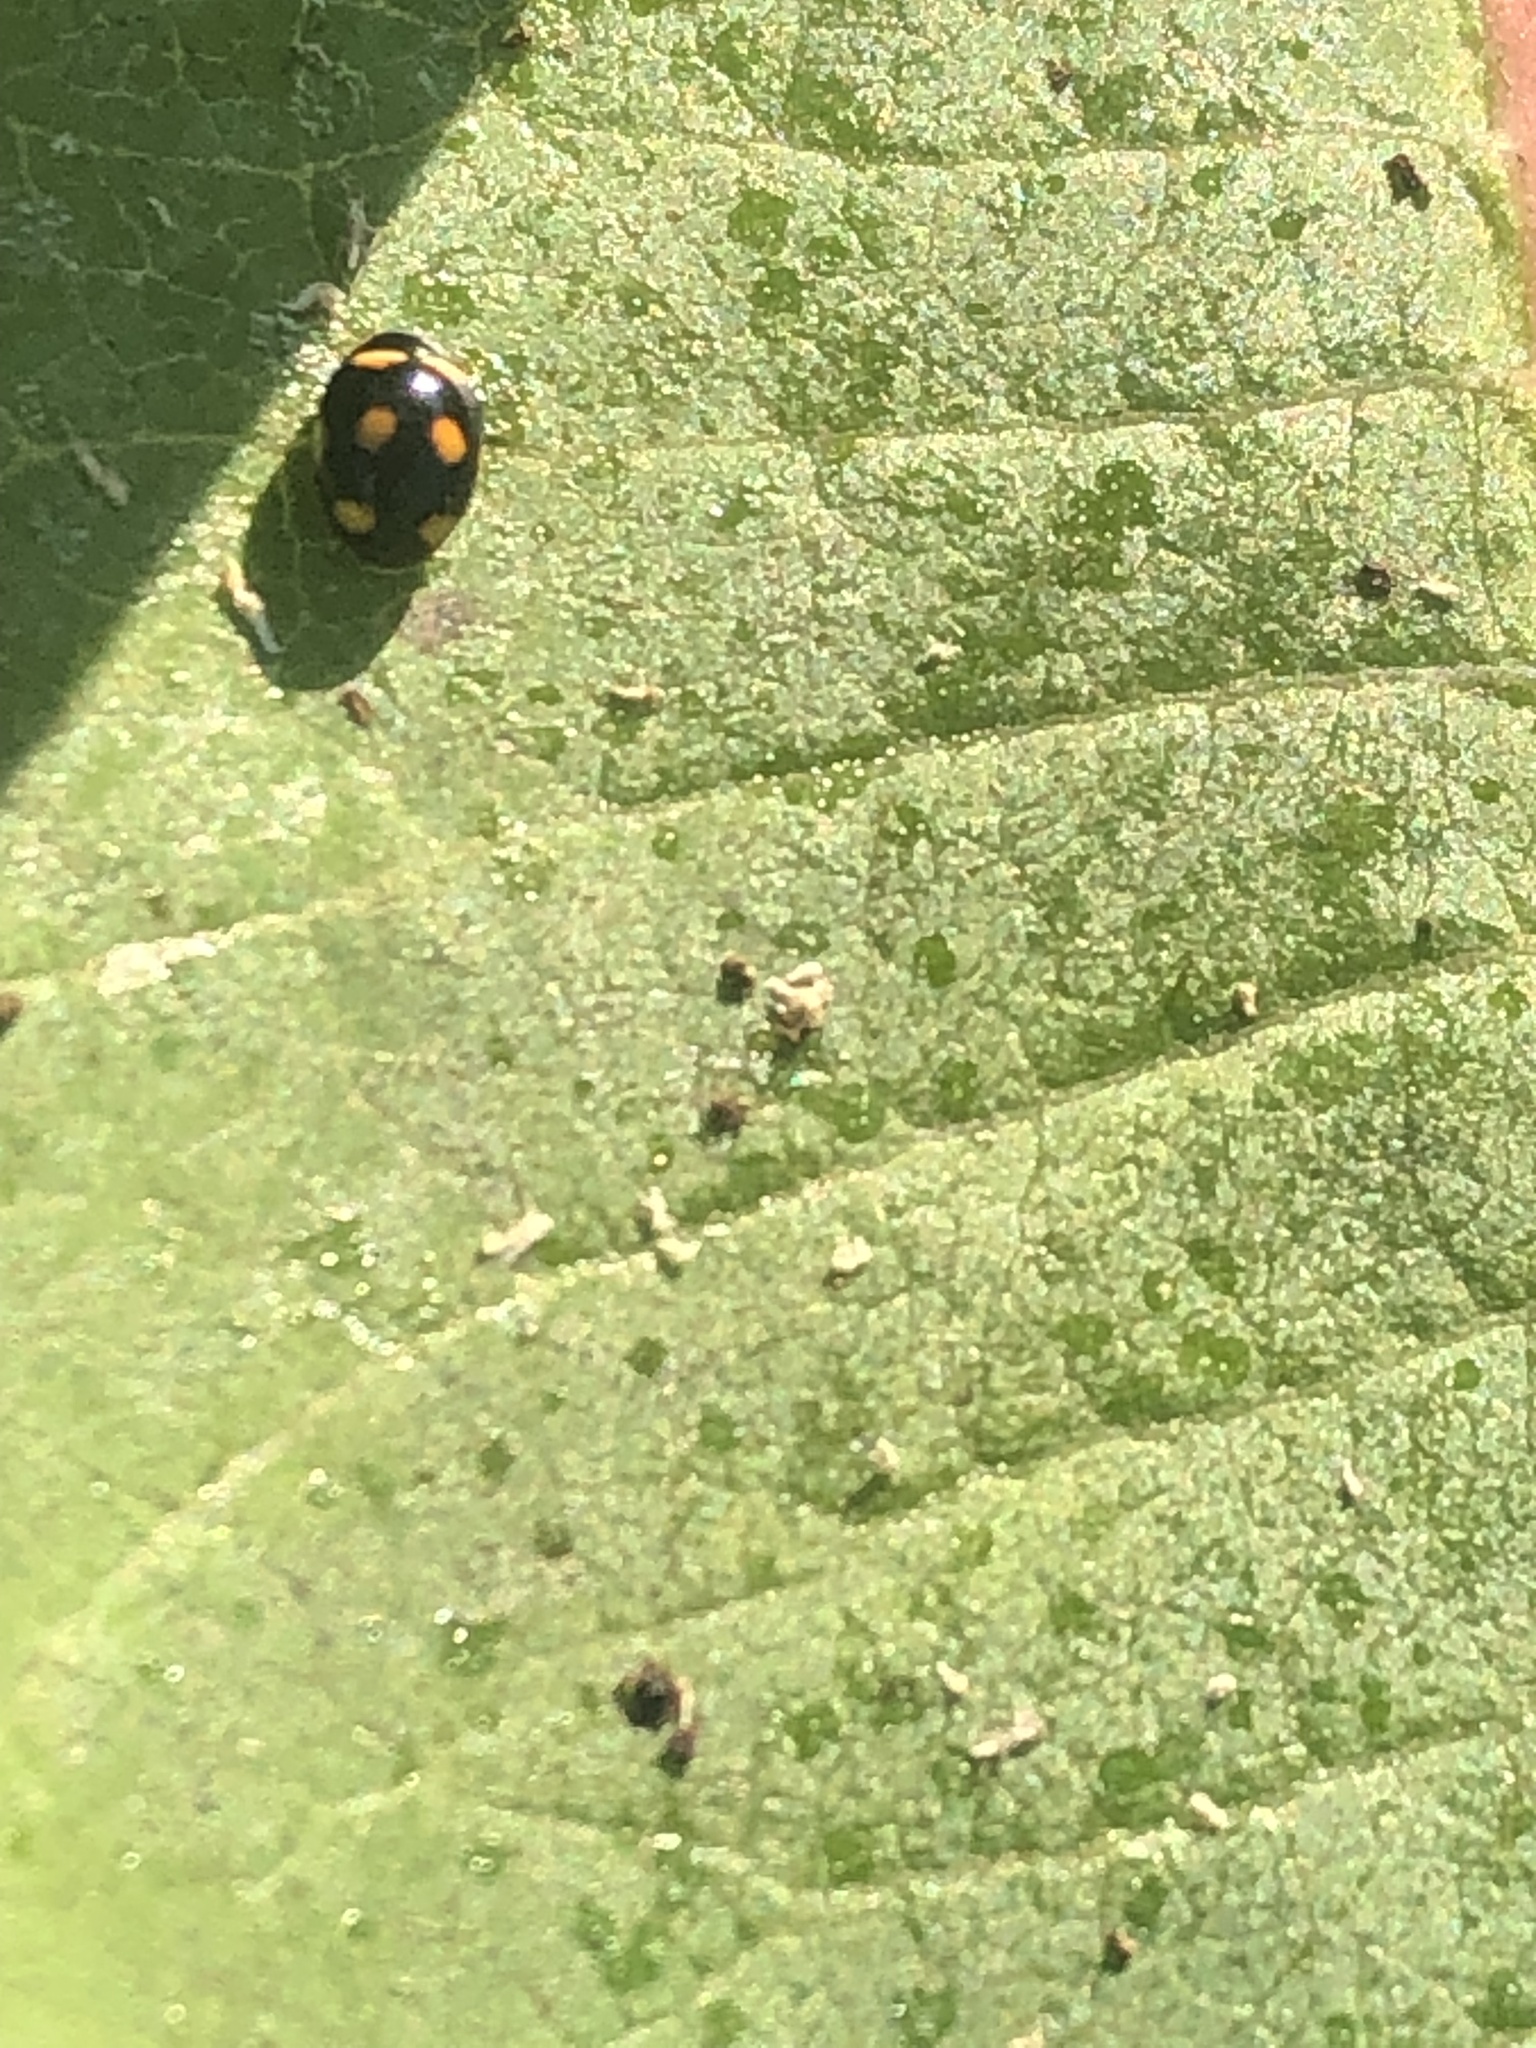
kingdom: Animalia
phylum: Arthropoda
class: Insecta
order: Coleoptera
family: Coccinellidae
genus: Brachiacantha
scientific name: Brachiacantha ursina
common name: Ursine spurleg lady beetle
